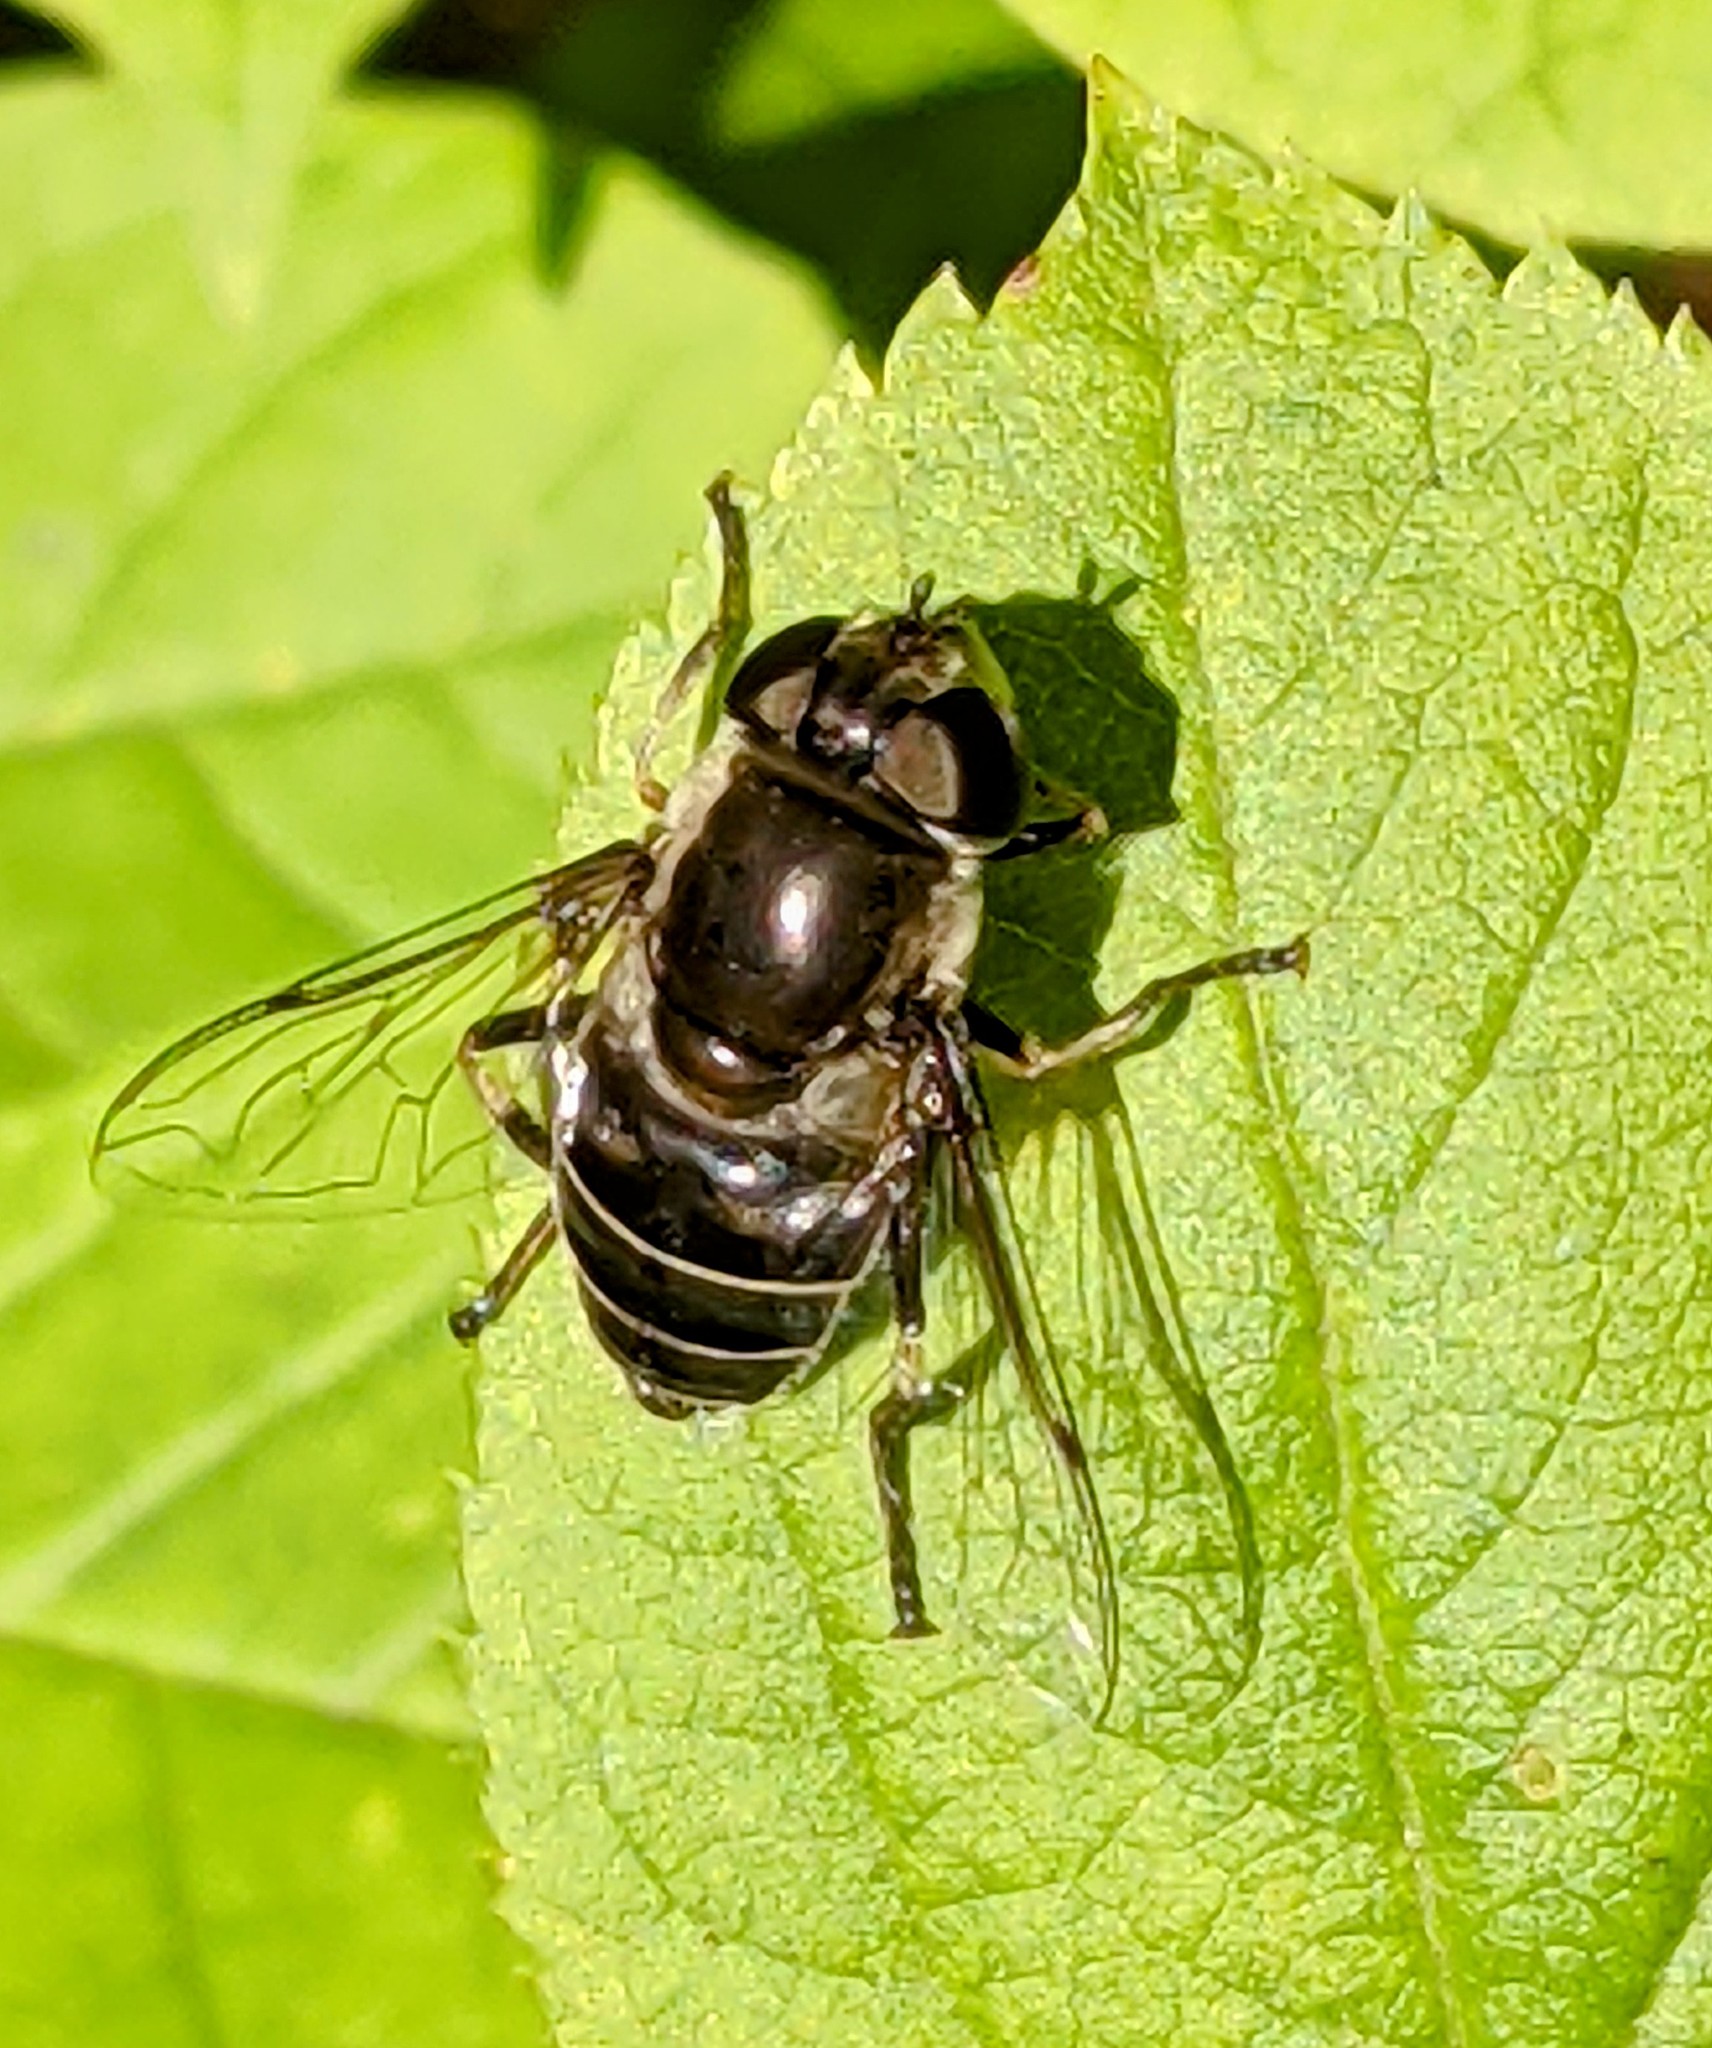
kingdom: Animalia
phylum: Arthropoda
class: Insecta
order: Diptera
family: Syrphidae
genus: Eristalis
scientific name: Eristalis dimidiata
